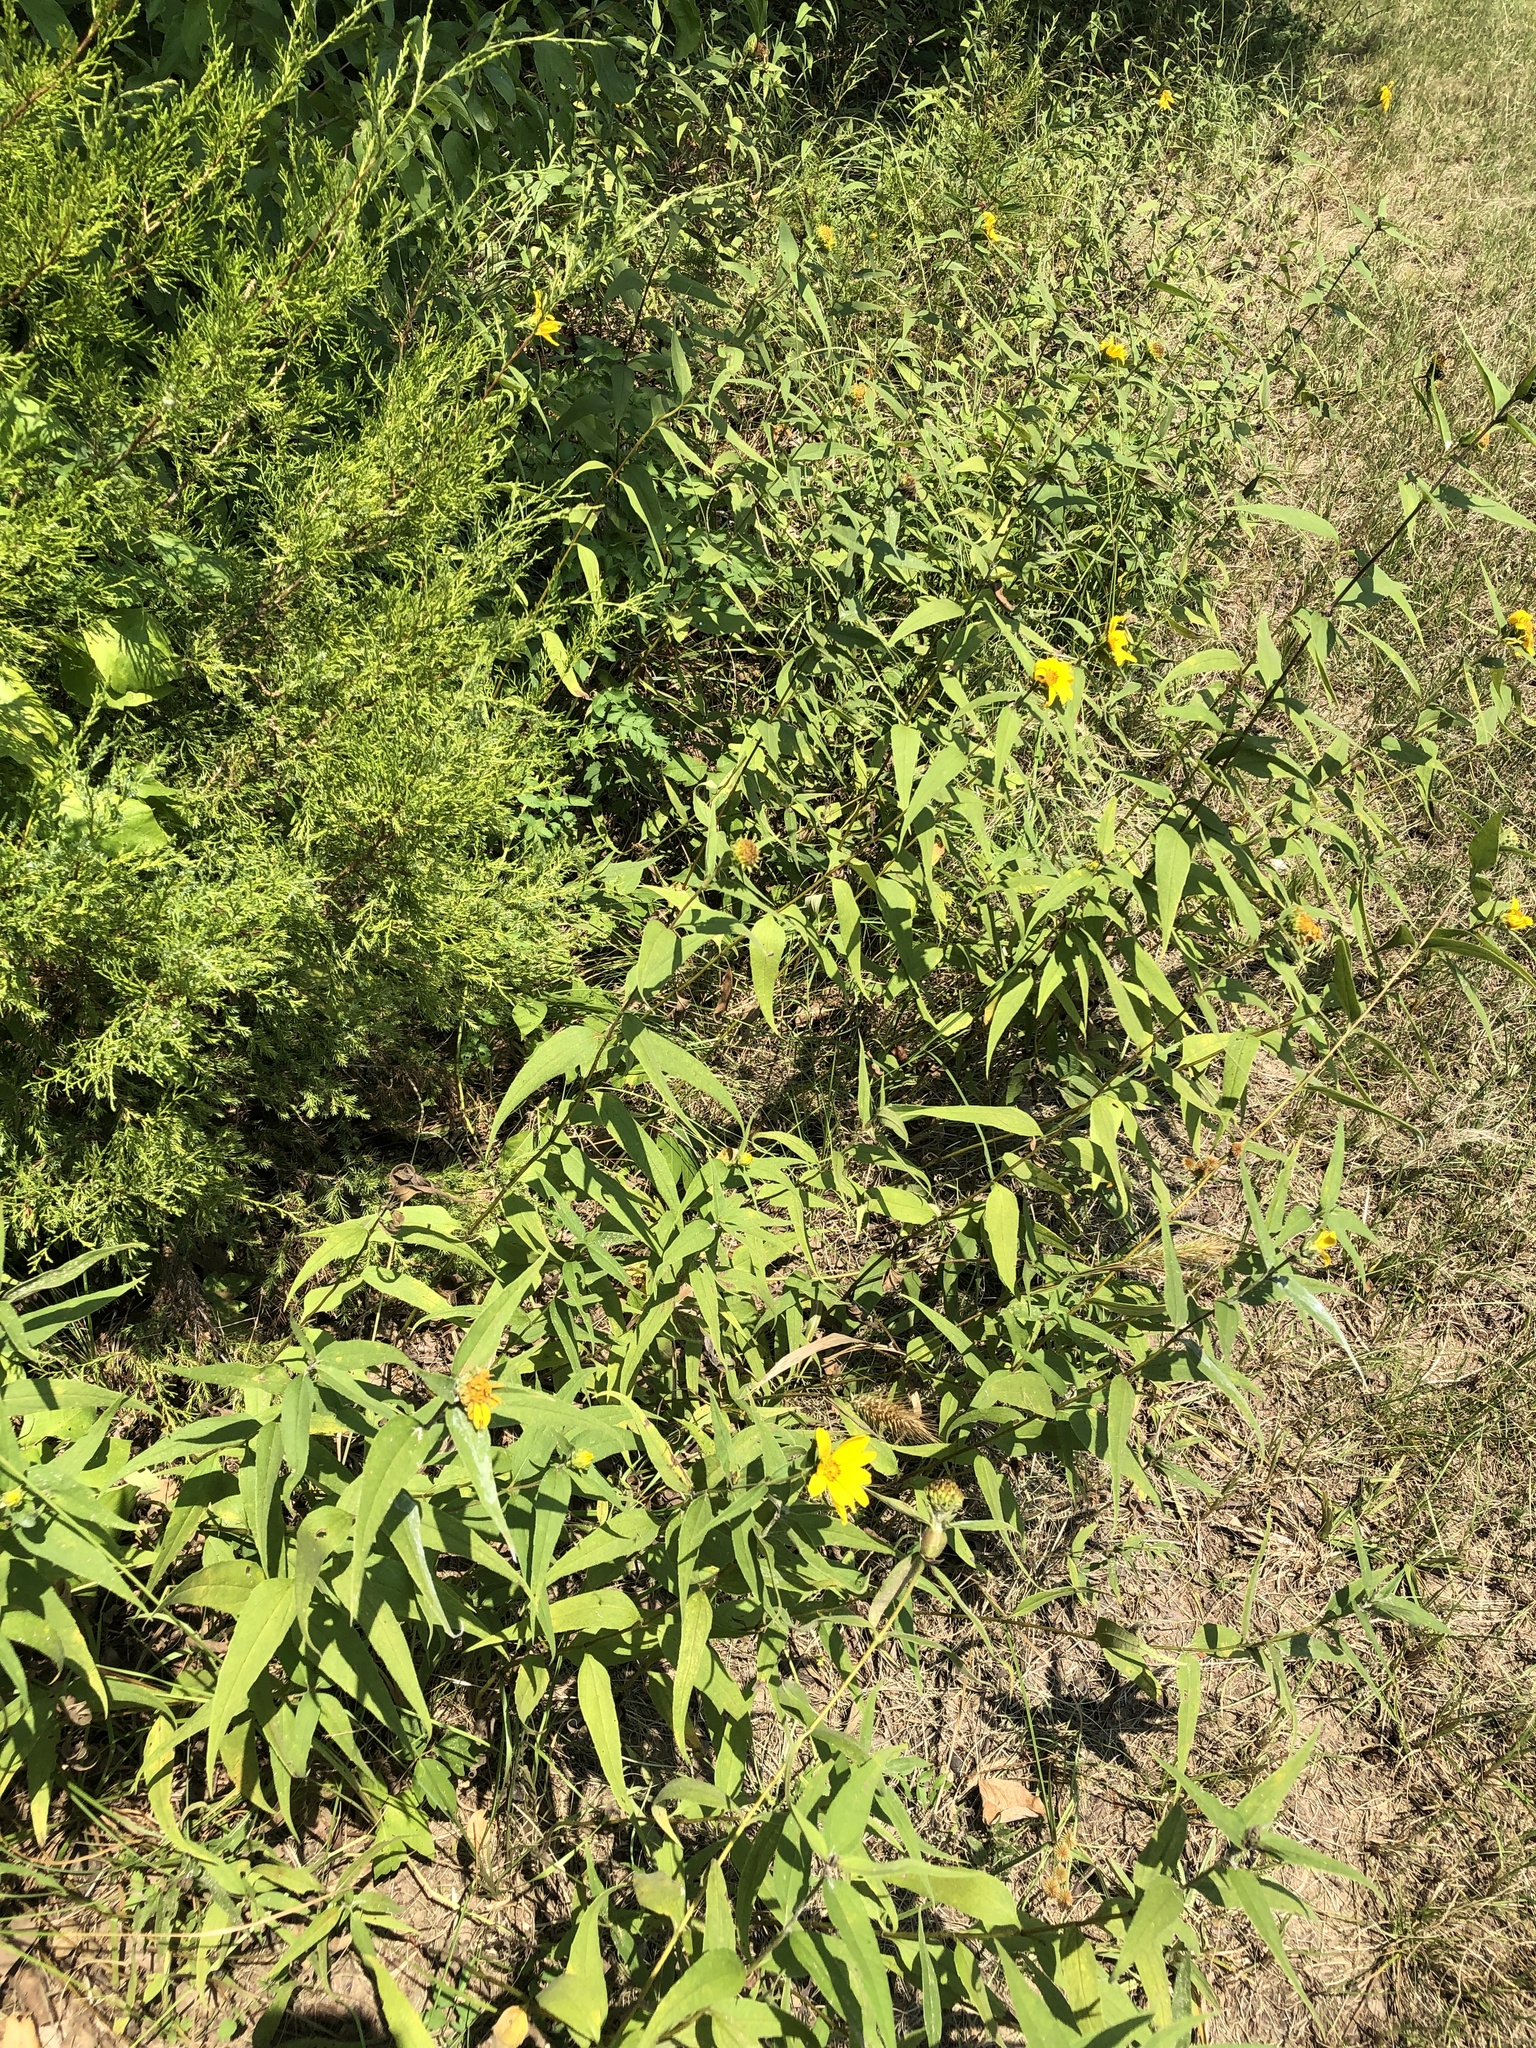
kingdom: Plantae
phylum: Tracheophyta
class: Magnoliopsida
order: Asterales
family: Asteraceae
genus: Helianthus
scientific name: Helianthus hirsutus
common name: Hairy sunflower
